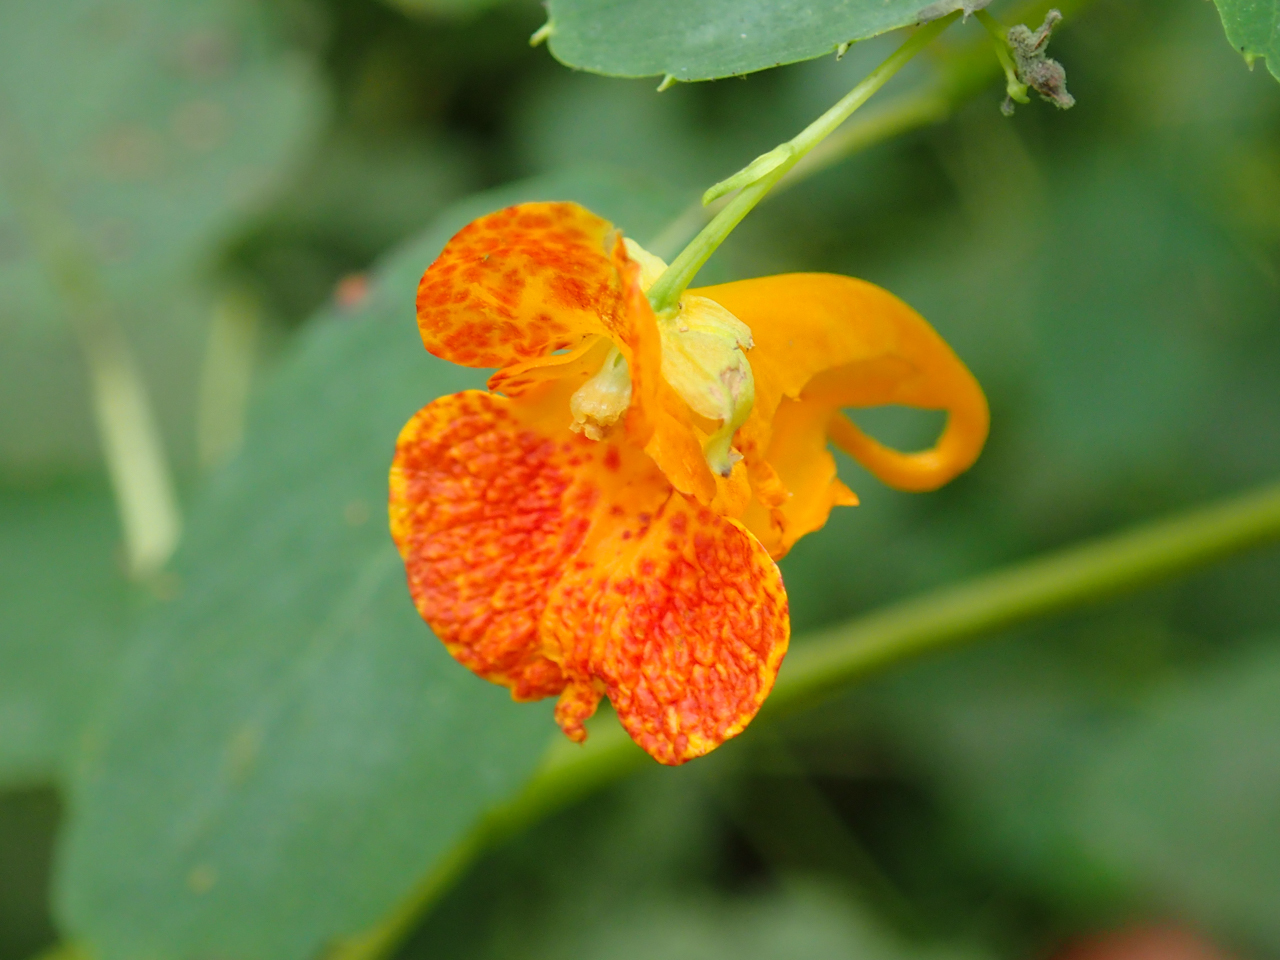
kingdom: Plantae
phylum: Tracheophyta
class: Magnoliopsida
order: Ericales
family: Balsaminaceae
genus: Impatiens
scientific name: Impatiens capensis
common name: Orange balsam
